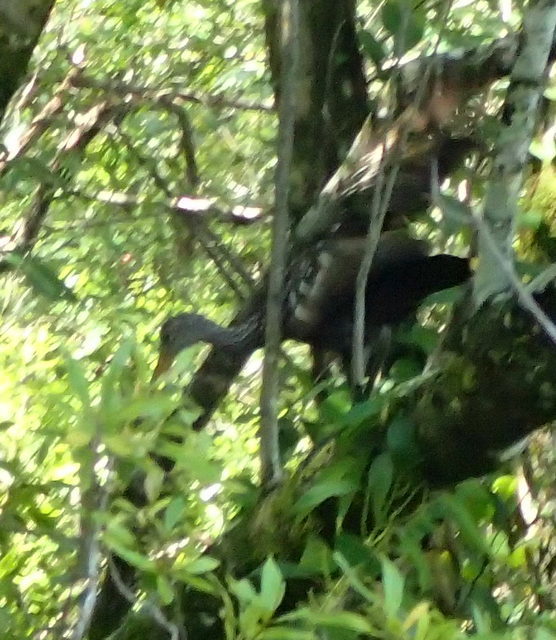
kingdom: Animalia
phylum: Chordata
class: Aves
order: Gruiformes
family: Aramidae
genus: Aramus
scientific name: Aramus guarauna
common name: Limpkin
